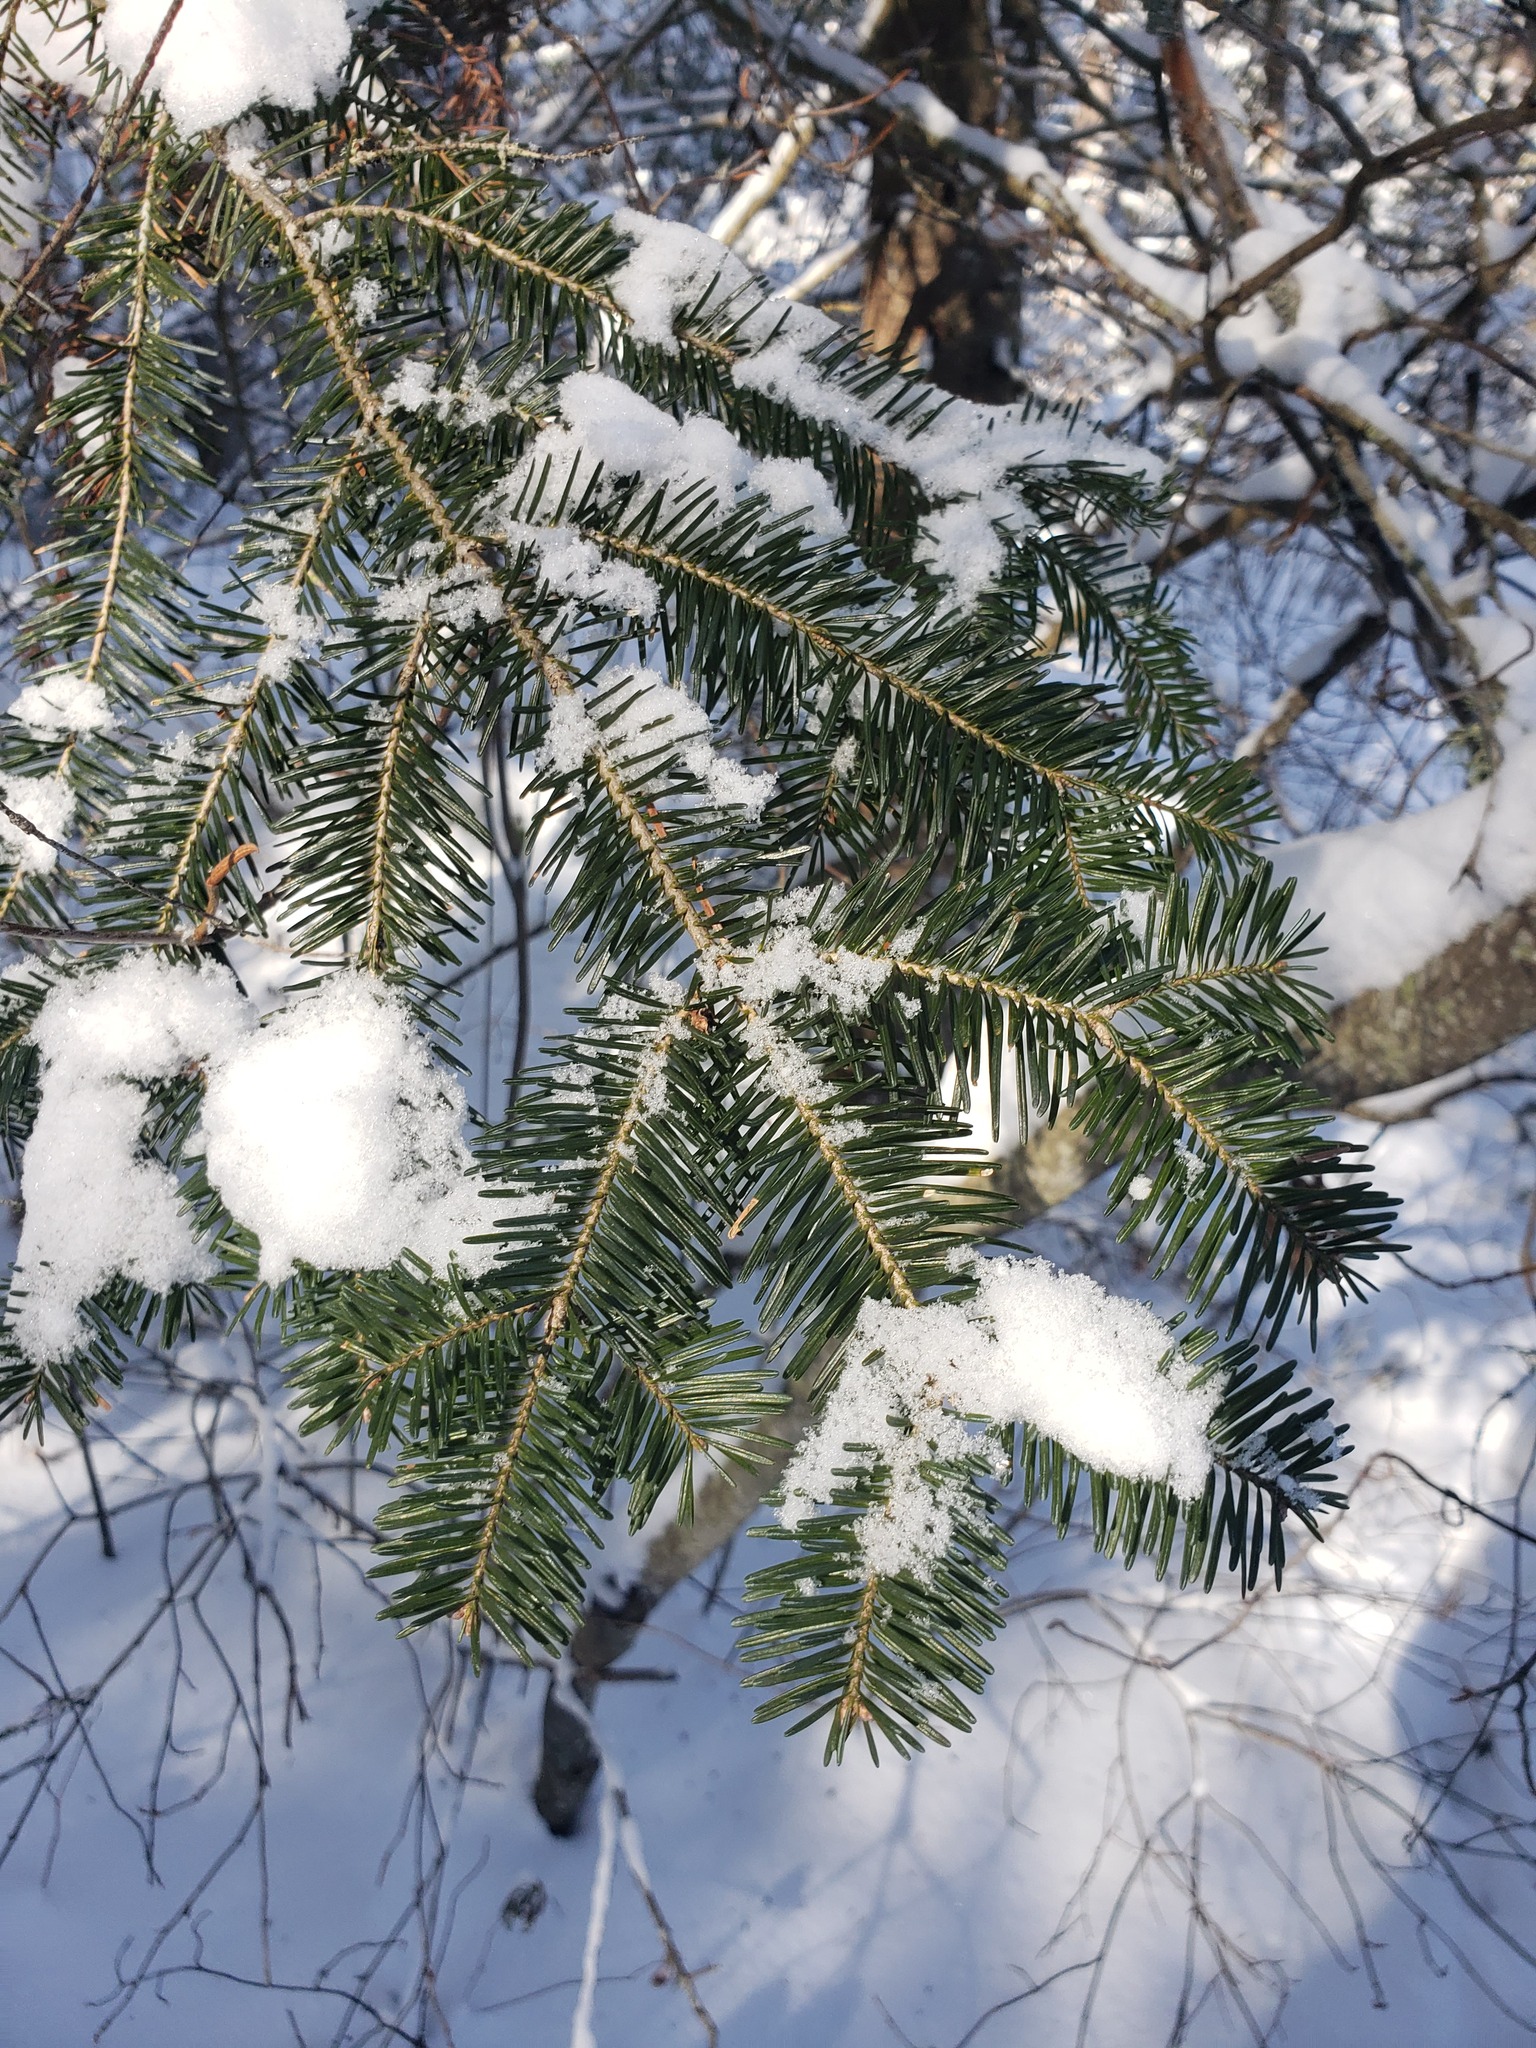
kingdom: Plantae
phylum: Tracheophyta
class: Pinopsida
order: Pinales
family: Pinaceae
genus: Abies
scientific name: Abies balsamea
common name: Balsam fir
